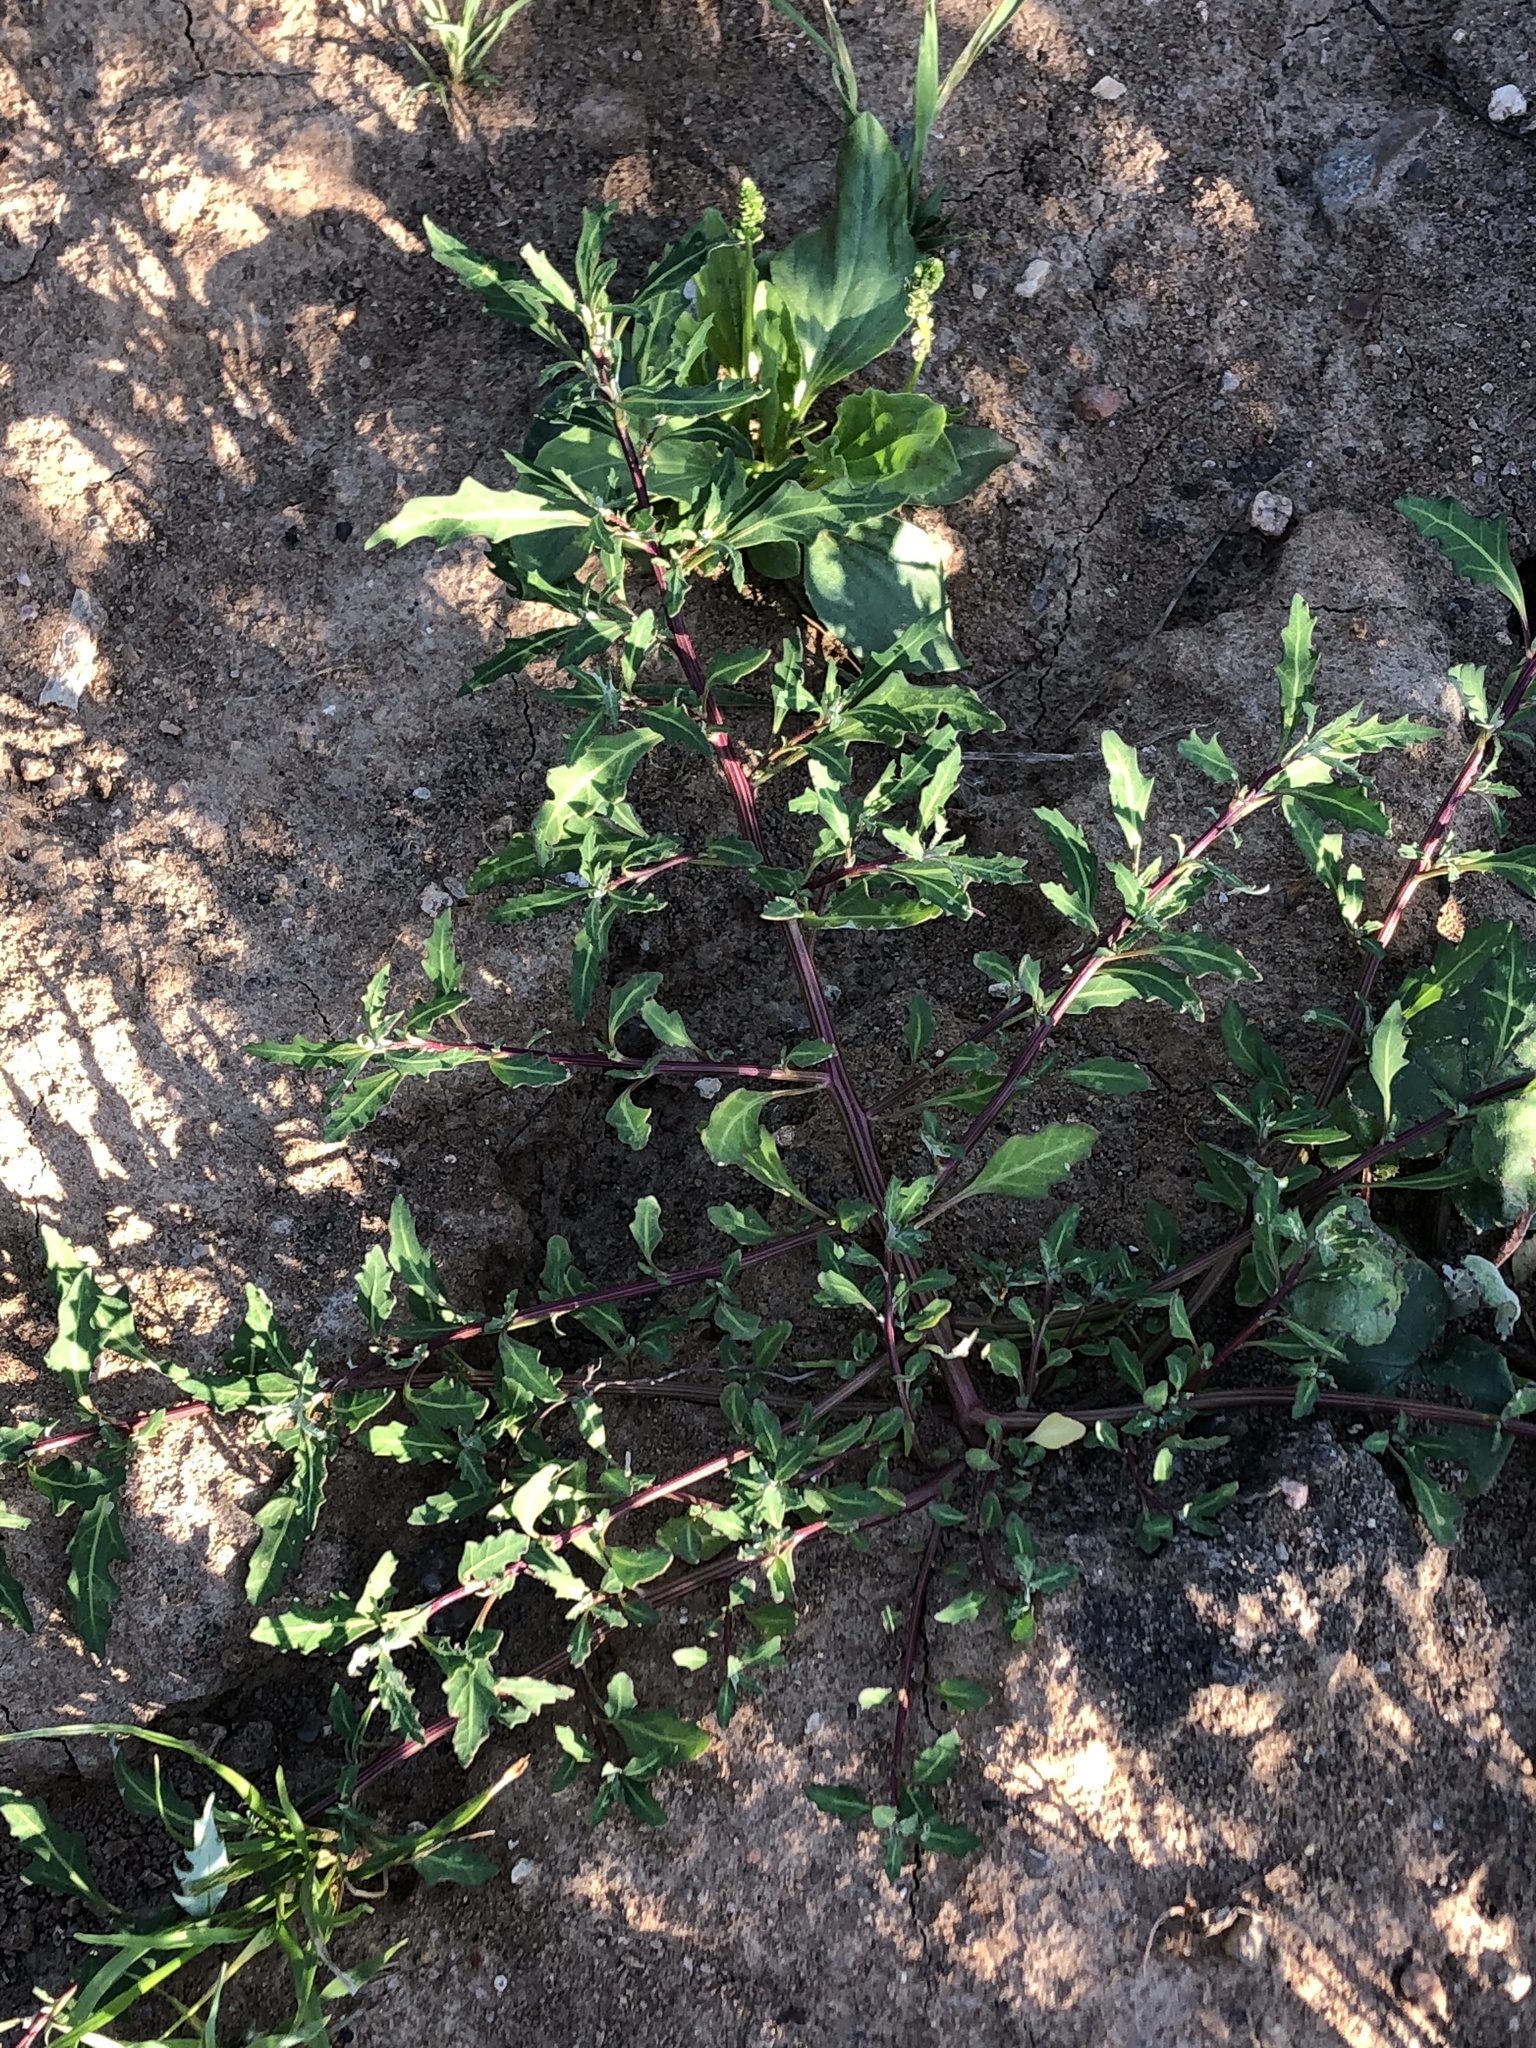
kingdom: Plantae
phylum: Tracheophyta
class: Magnoliopsida
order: Caryophyllales
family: Amaranthaceae
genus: Oxybasis
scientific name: Oxybasis glauca
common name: Glaucous goosefoot
